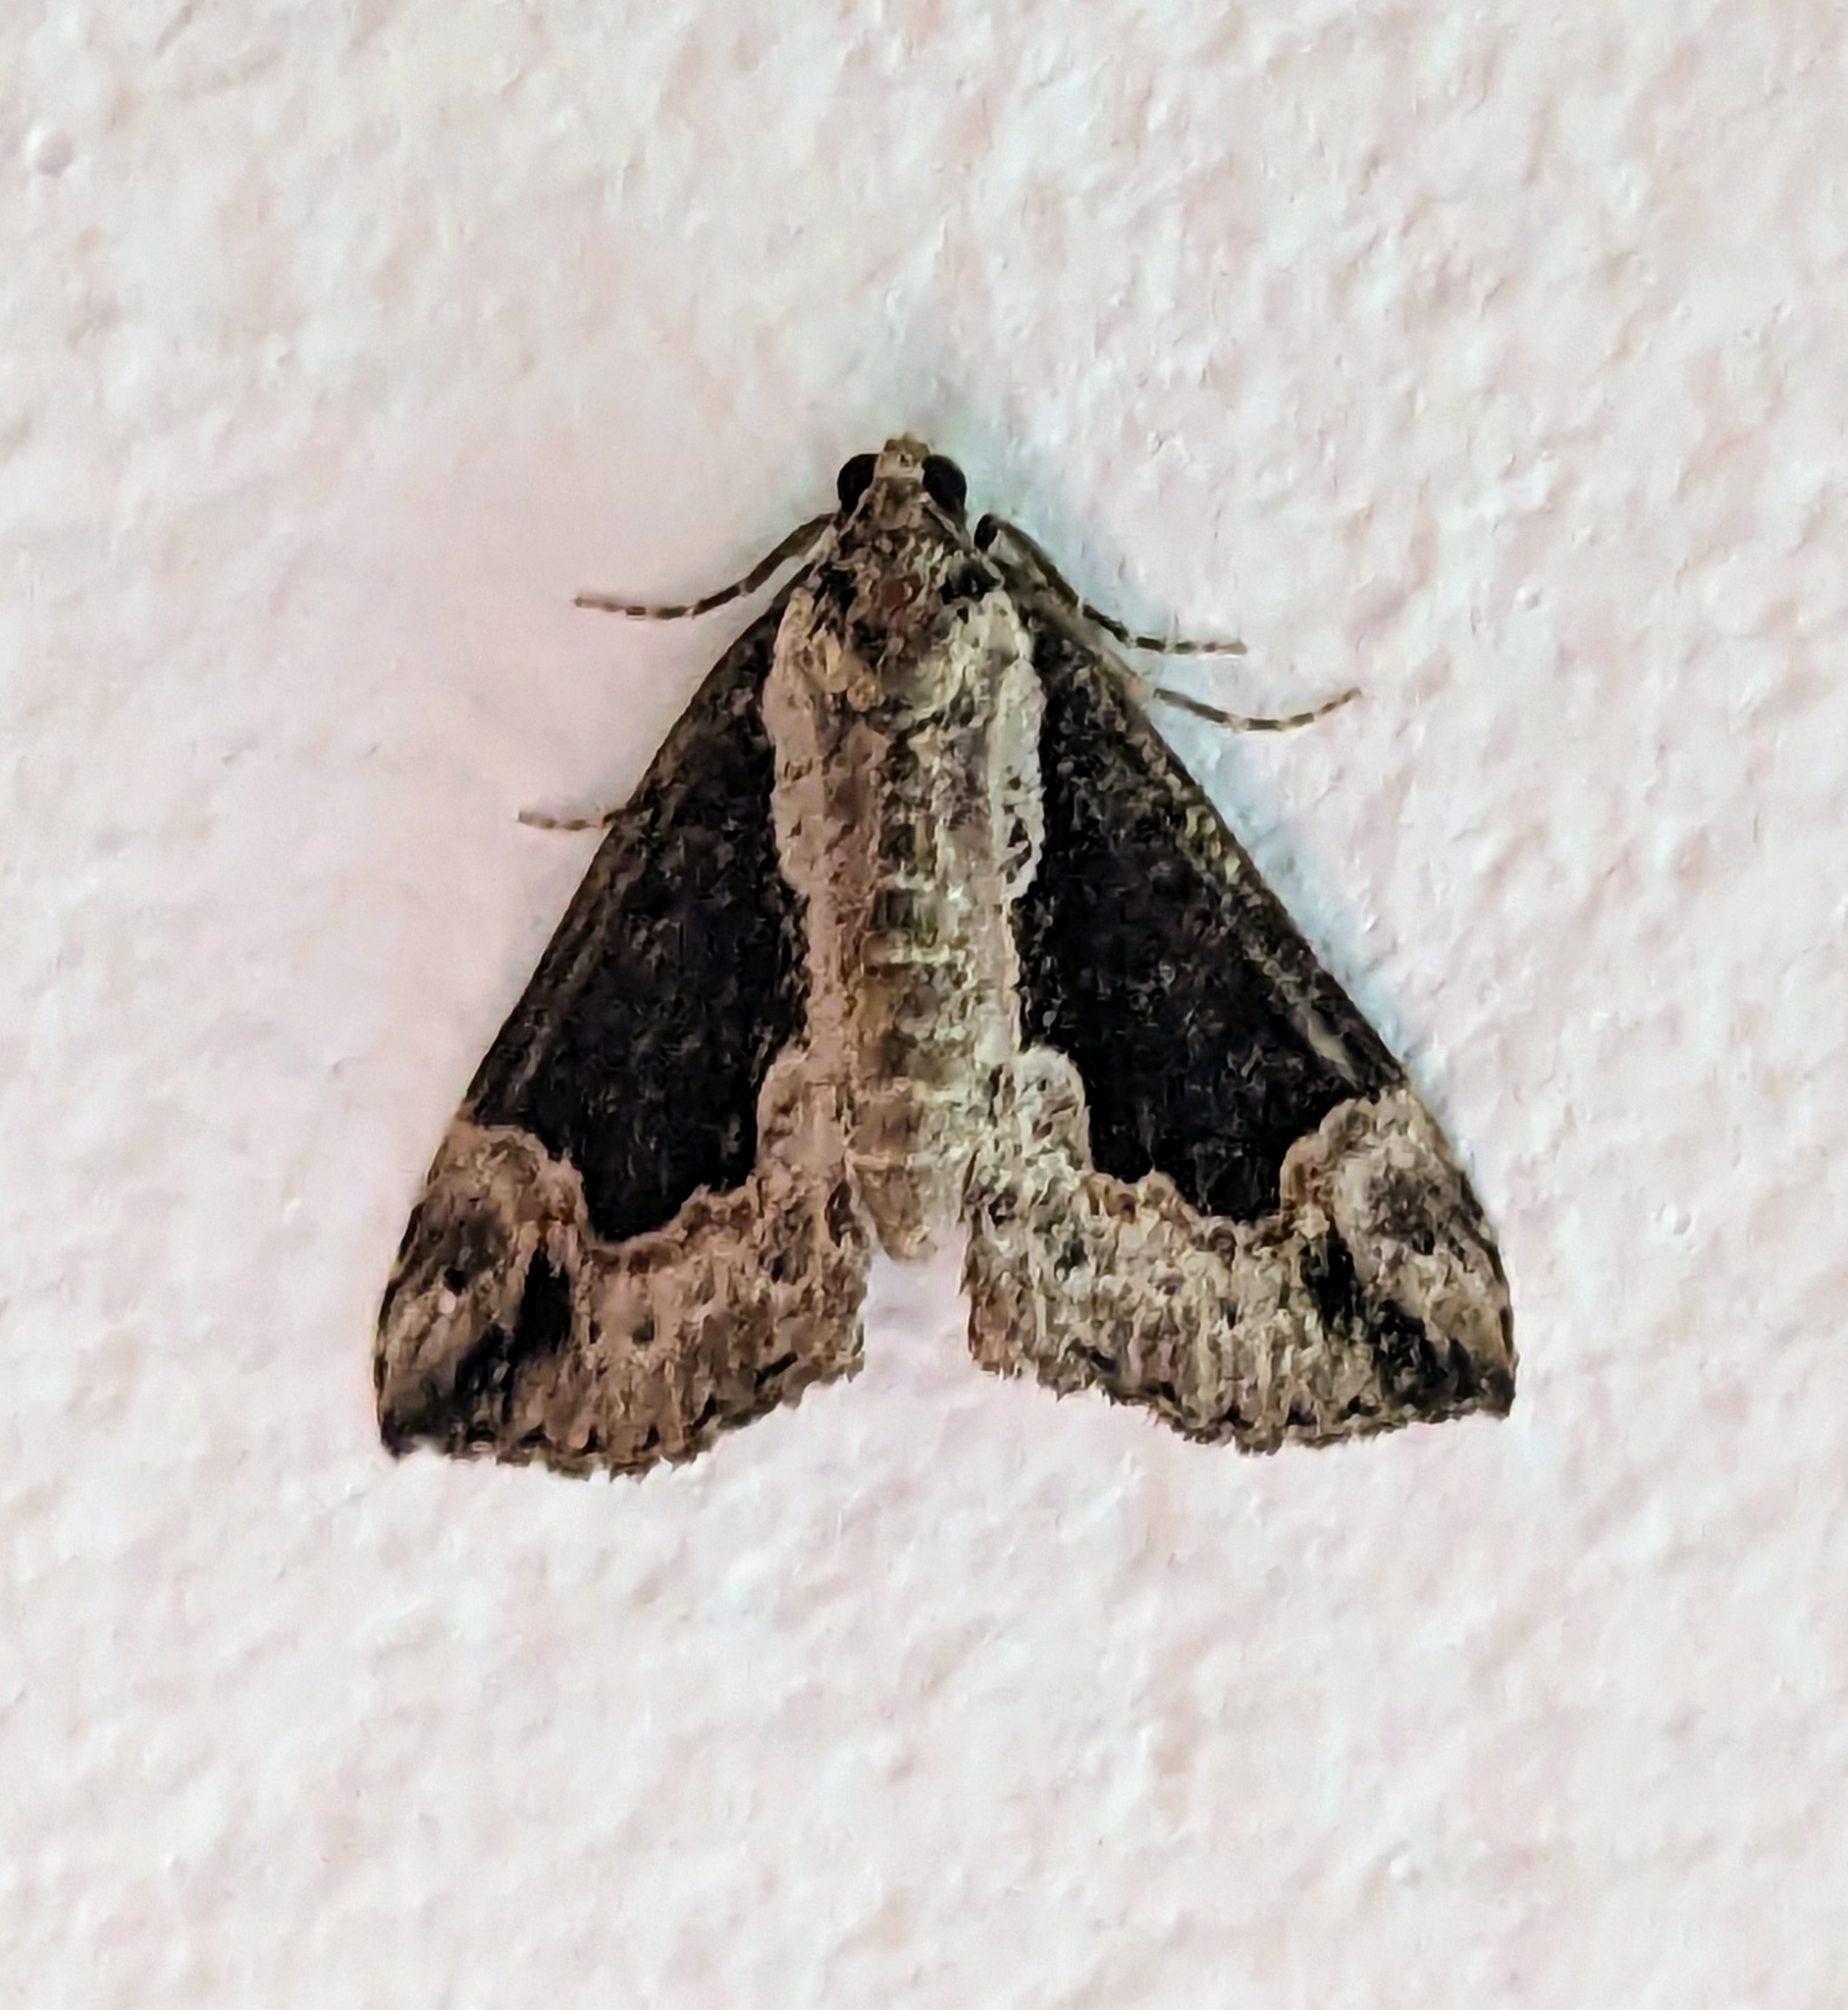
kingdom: Animalia
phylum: Arthropoda
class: Insecta
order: Lepidoptera
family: Erebidae
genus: Hypena
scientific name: Hypena baltimoralis
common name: Baltimore snout
